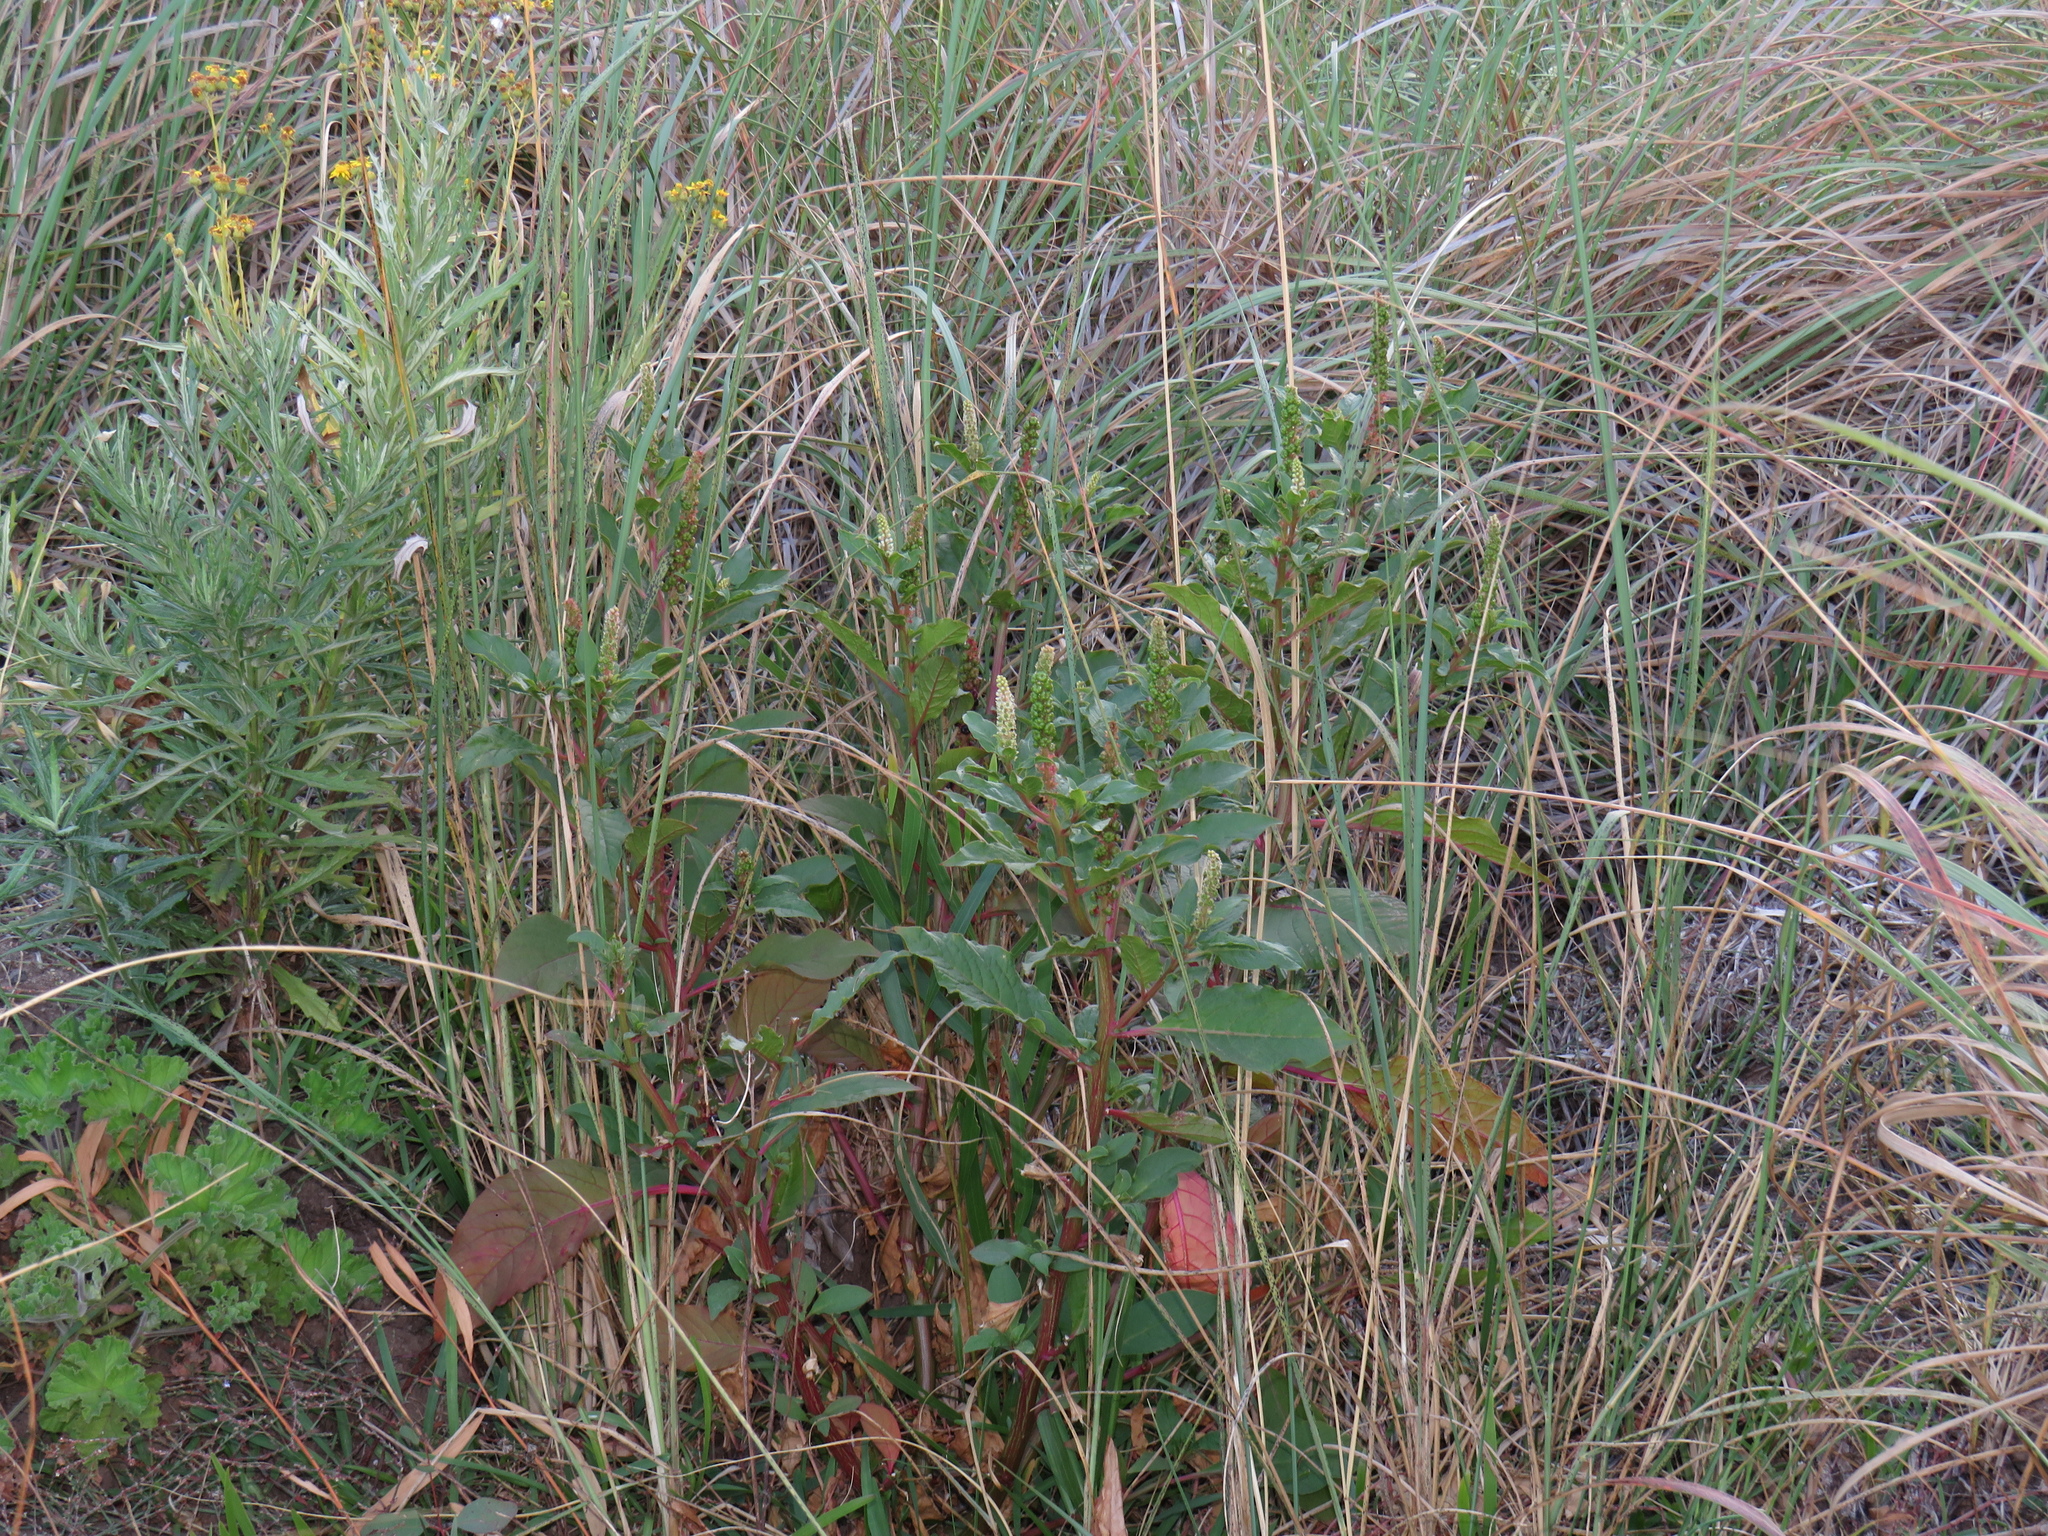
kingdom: Plantae
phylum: Tracheophyta
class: Magnoliopsida
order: Caryophyllales
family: Phytolaccaceae
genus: Phytolacca
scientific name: Phytolacca icosandra
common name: Button pokeweed
